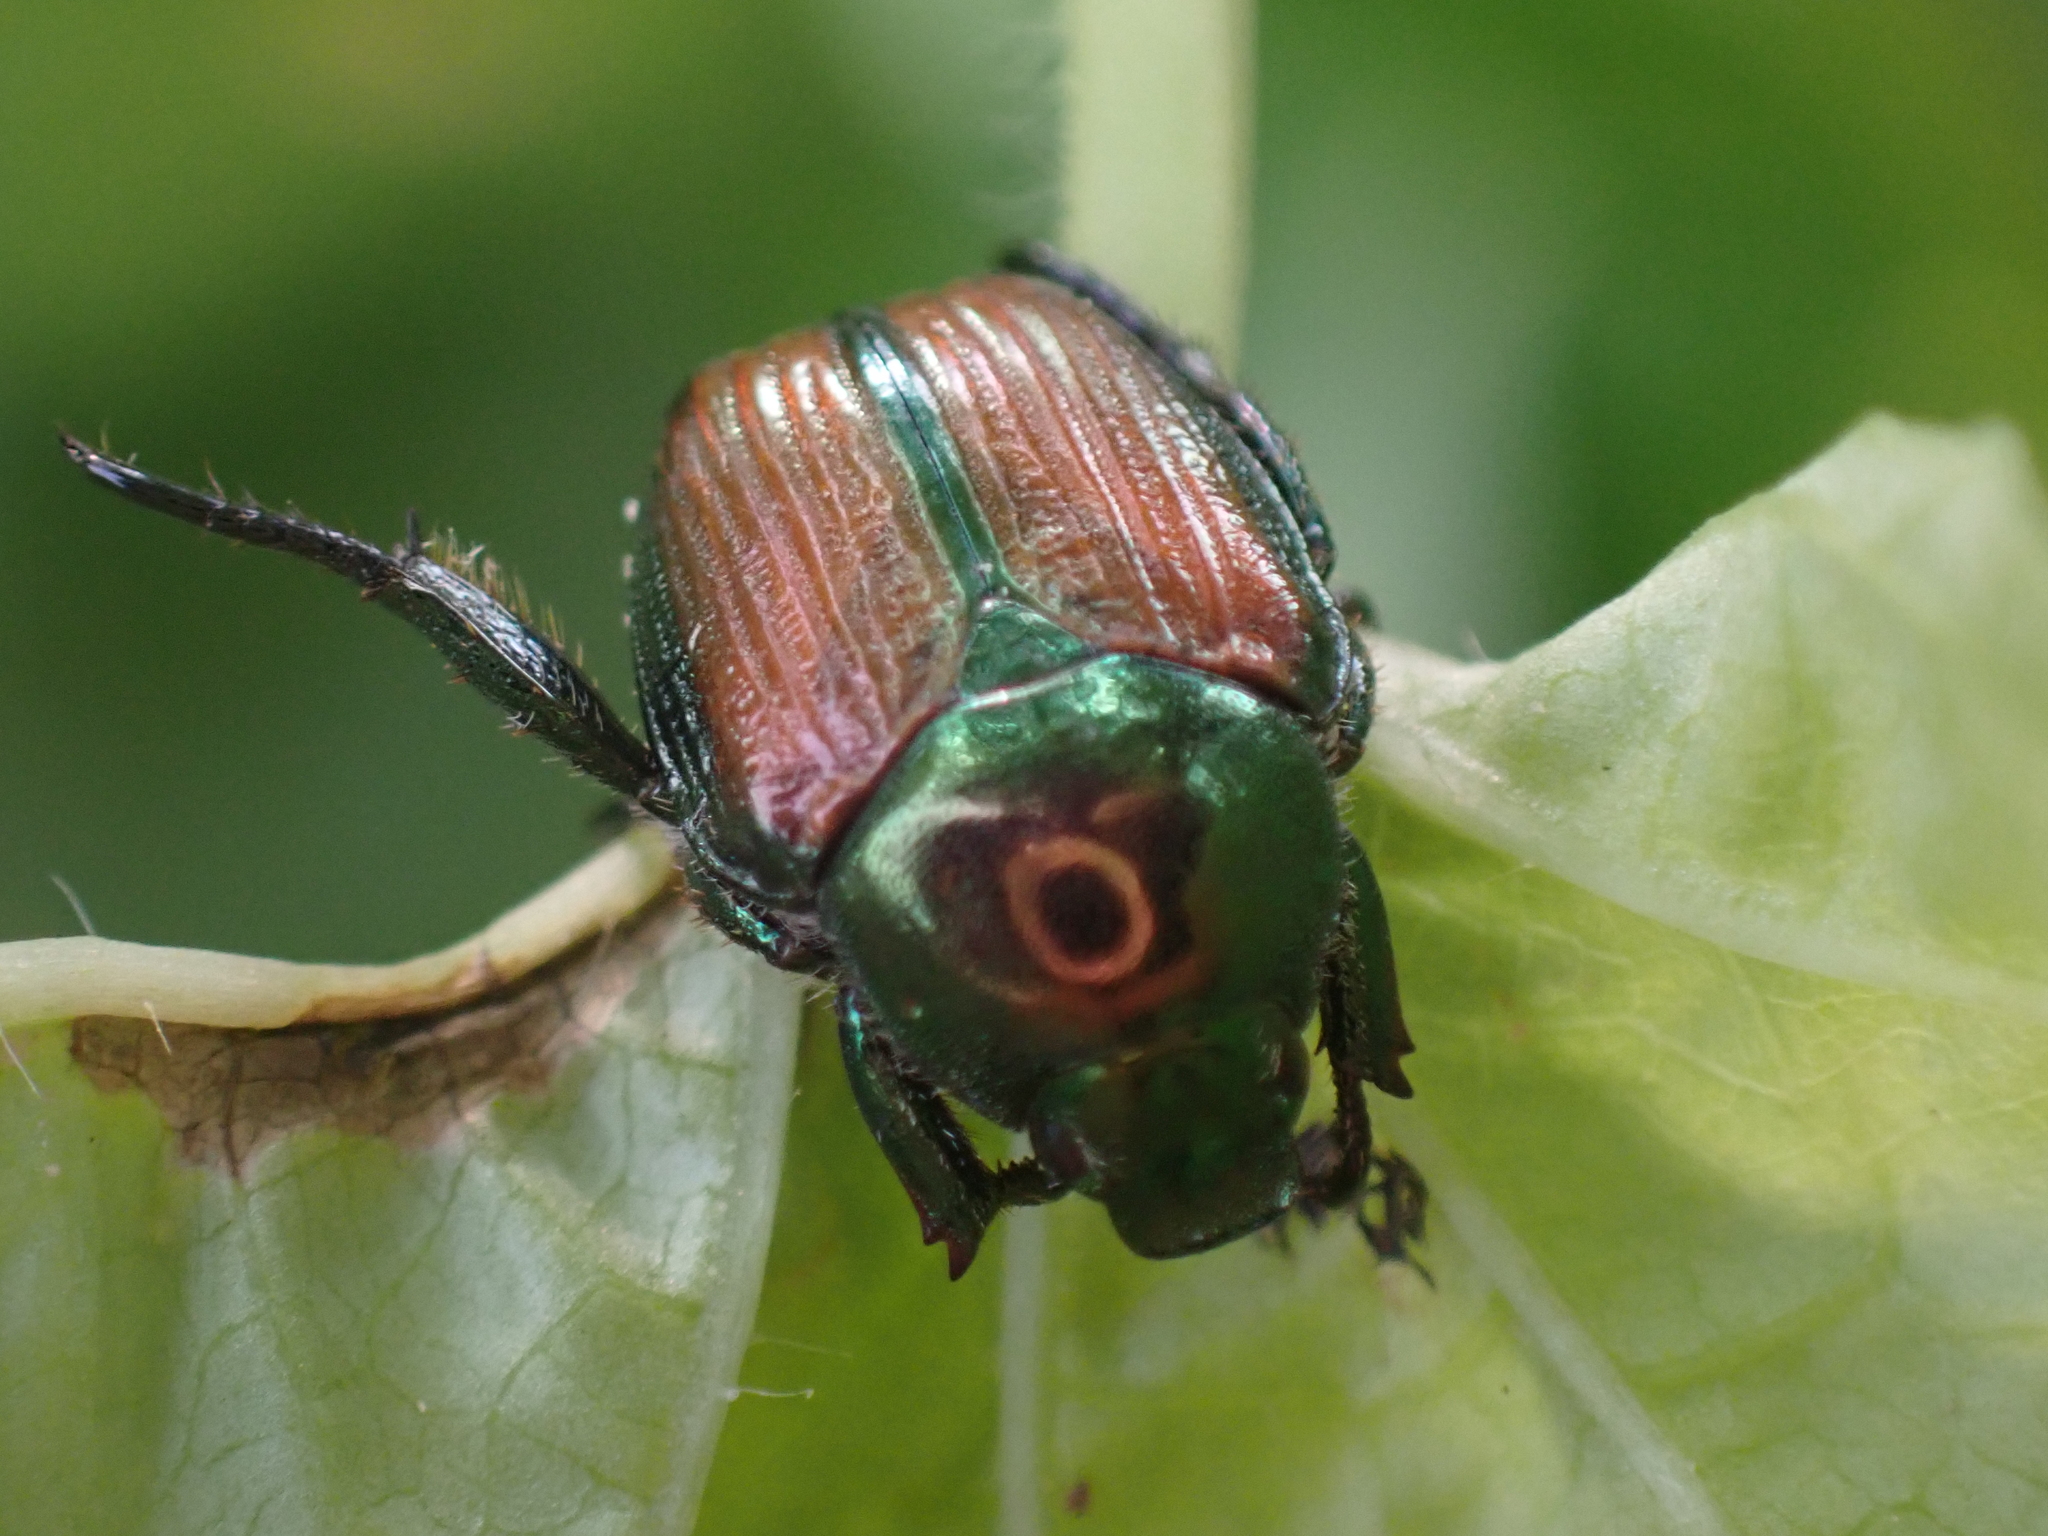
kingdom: Animalia
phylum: Arthropoda
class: Insecta
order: Coleoptera
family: Scarabaeidae
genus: Popillia
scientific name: Popillia japonica
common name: Japanese beetle
